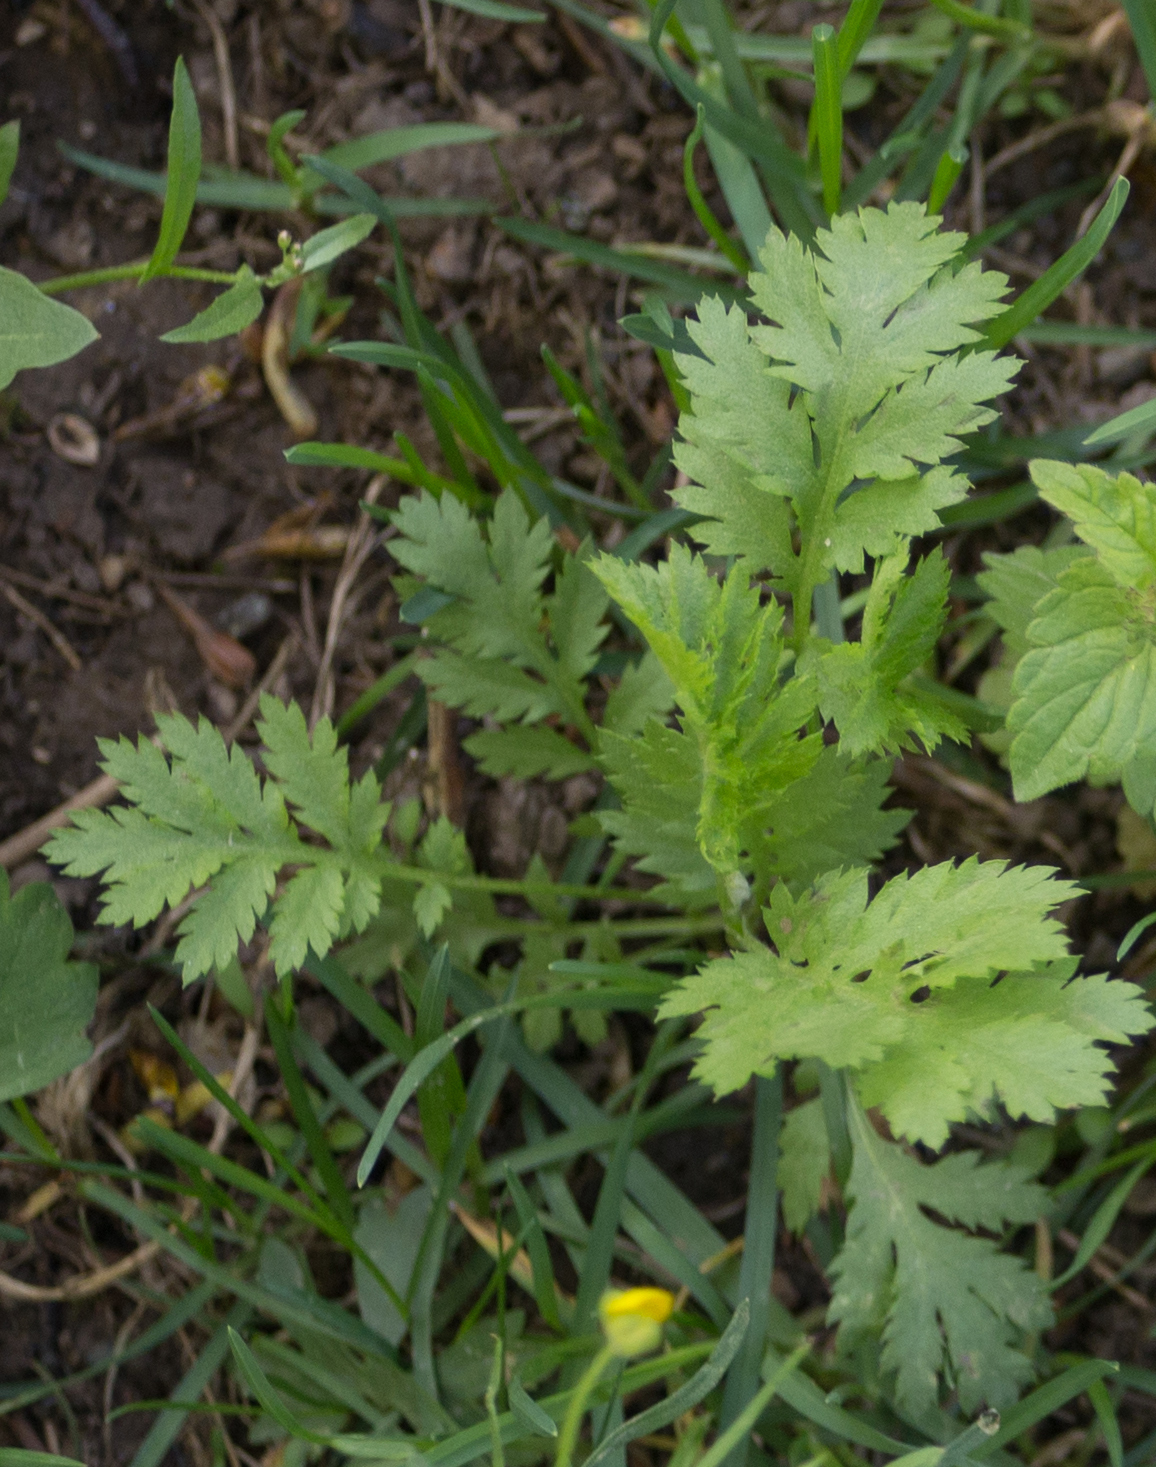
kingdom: Plantae
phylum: Tracheophyta
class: Magnoliopsida
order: Asterales
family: Asteraceae
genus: Tanacetum
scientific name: Tanacetum vulgare
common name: Common tansy
